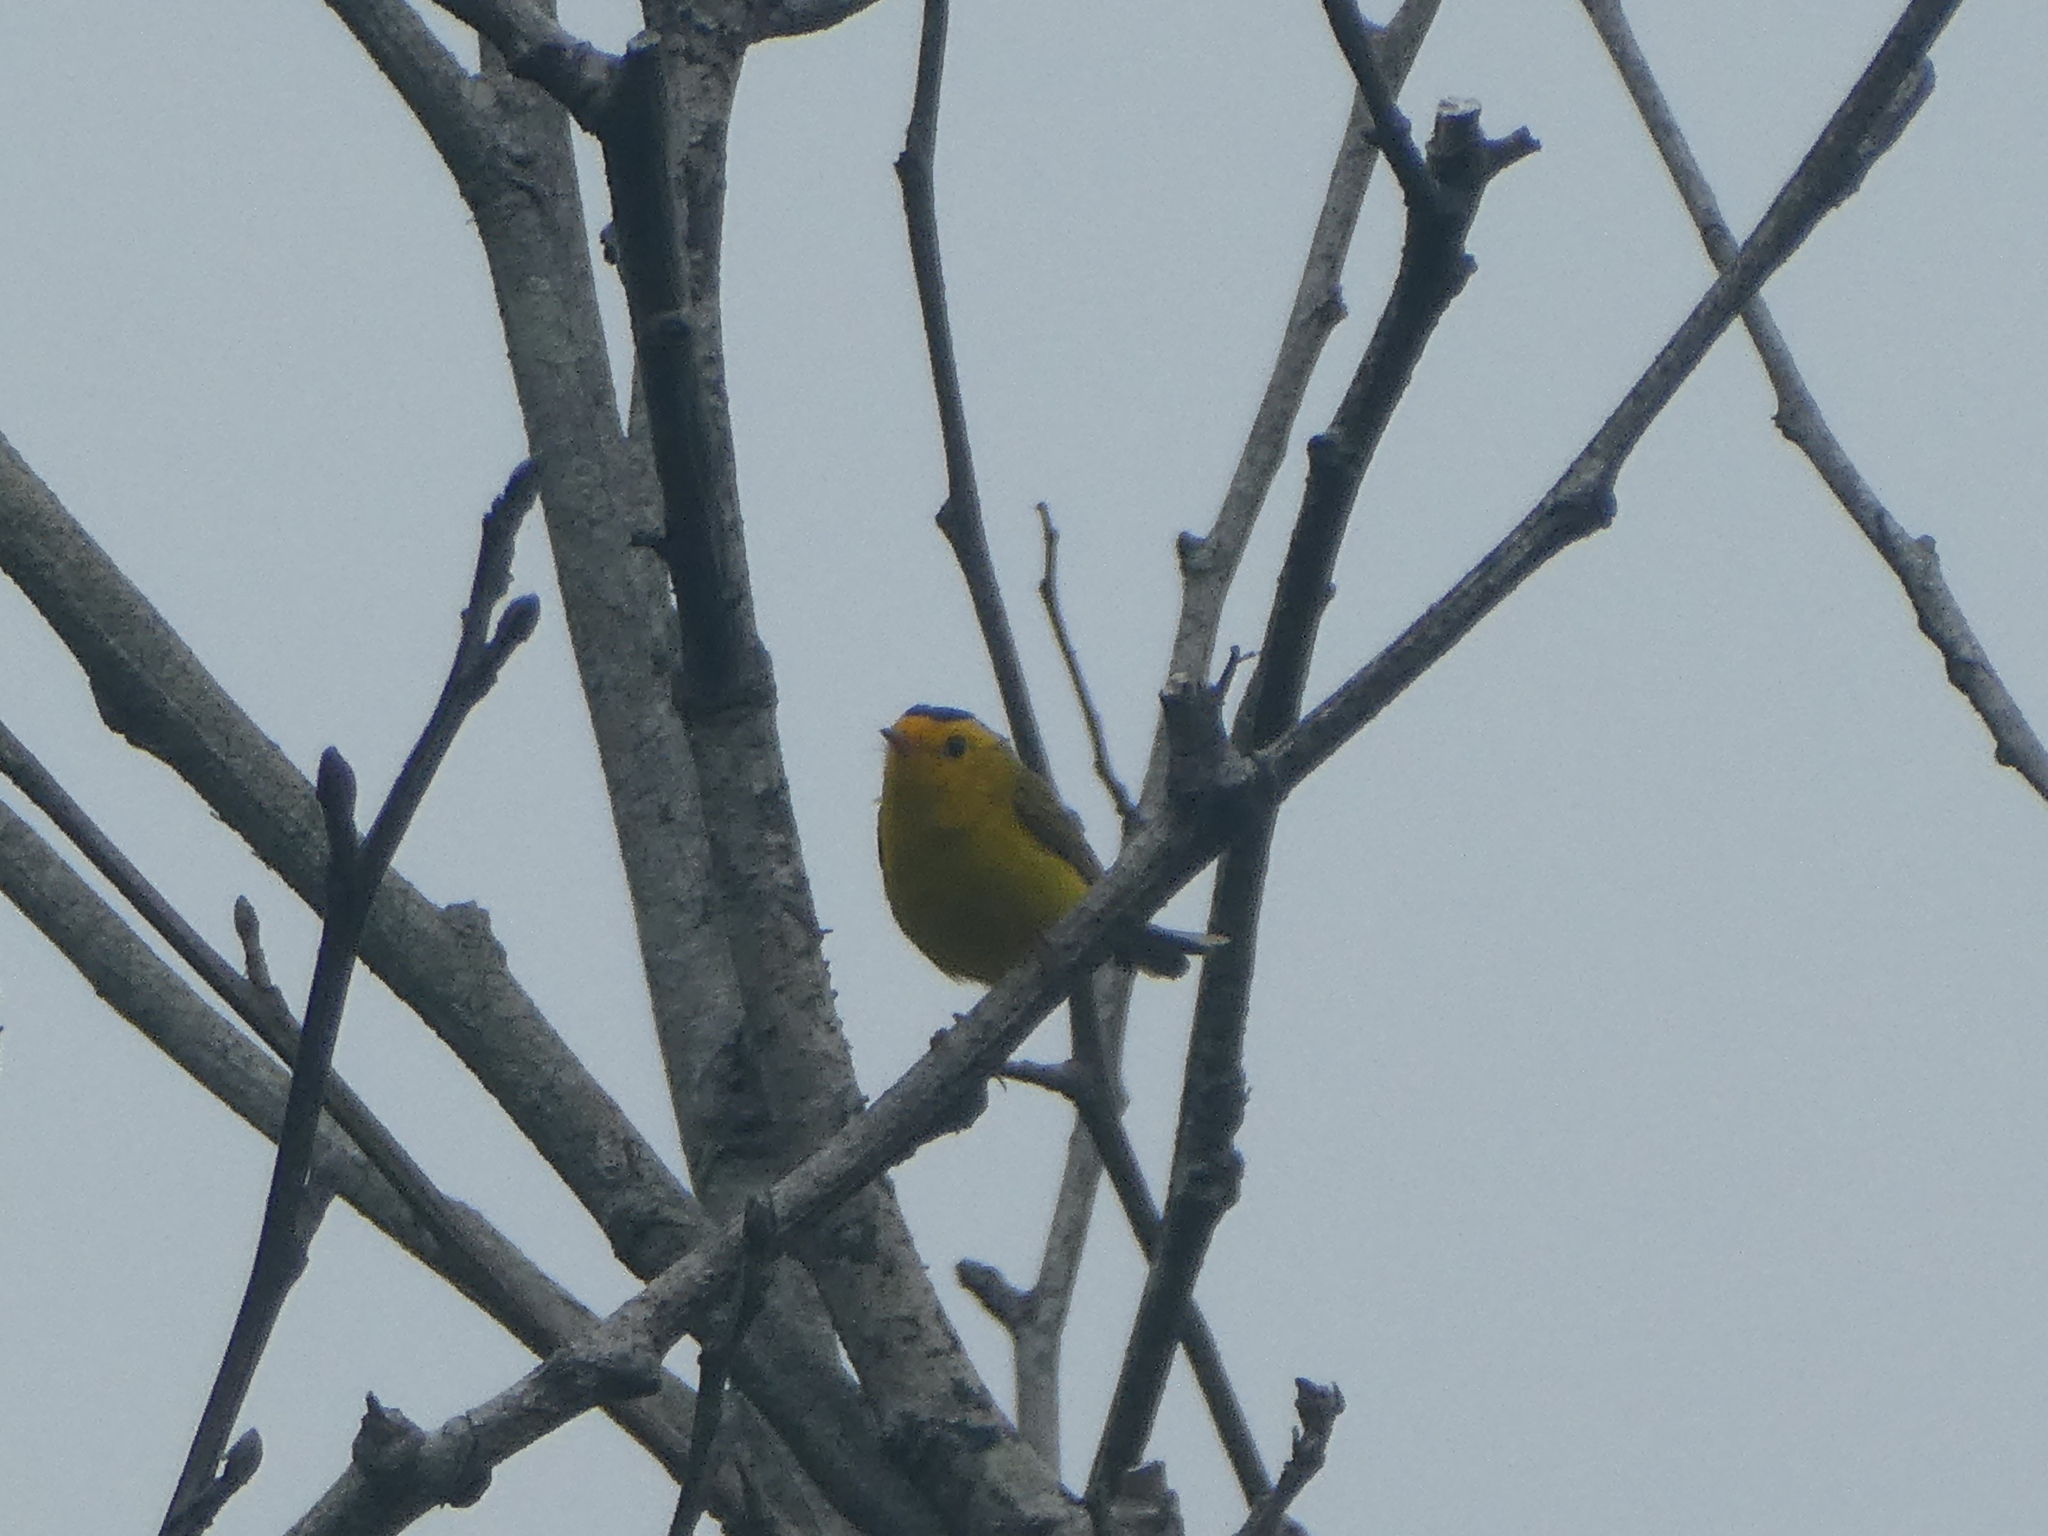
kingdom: Animalia
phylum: Chordata
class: Aves
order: Passeriformes
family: Parulidae
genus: Cardellina
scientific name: Cardellina pusilla
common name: Wilson's warbler
